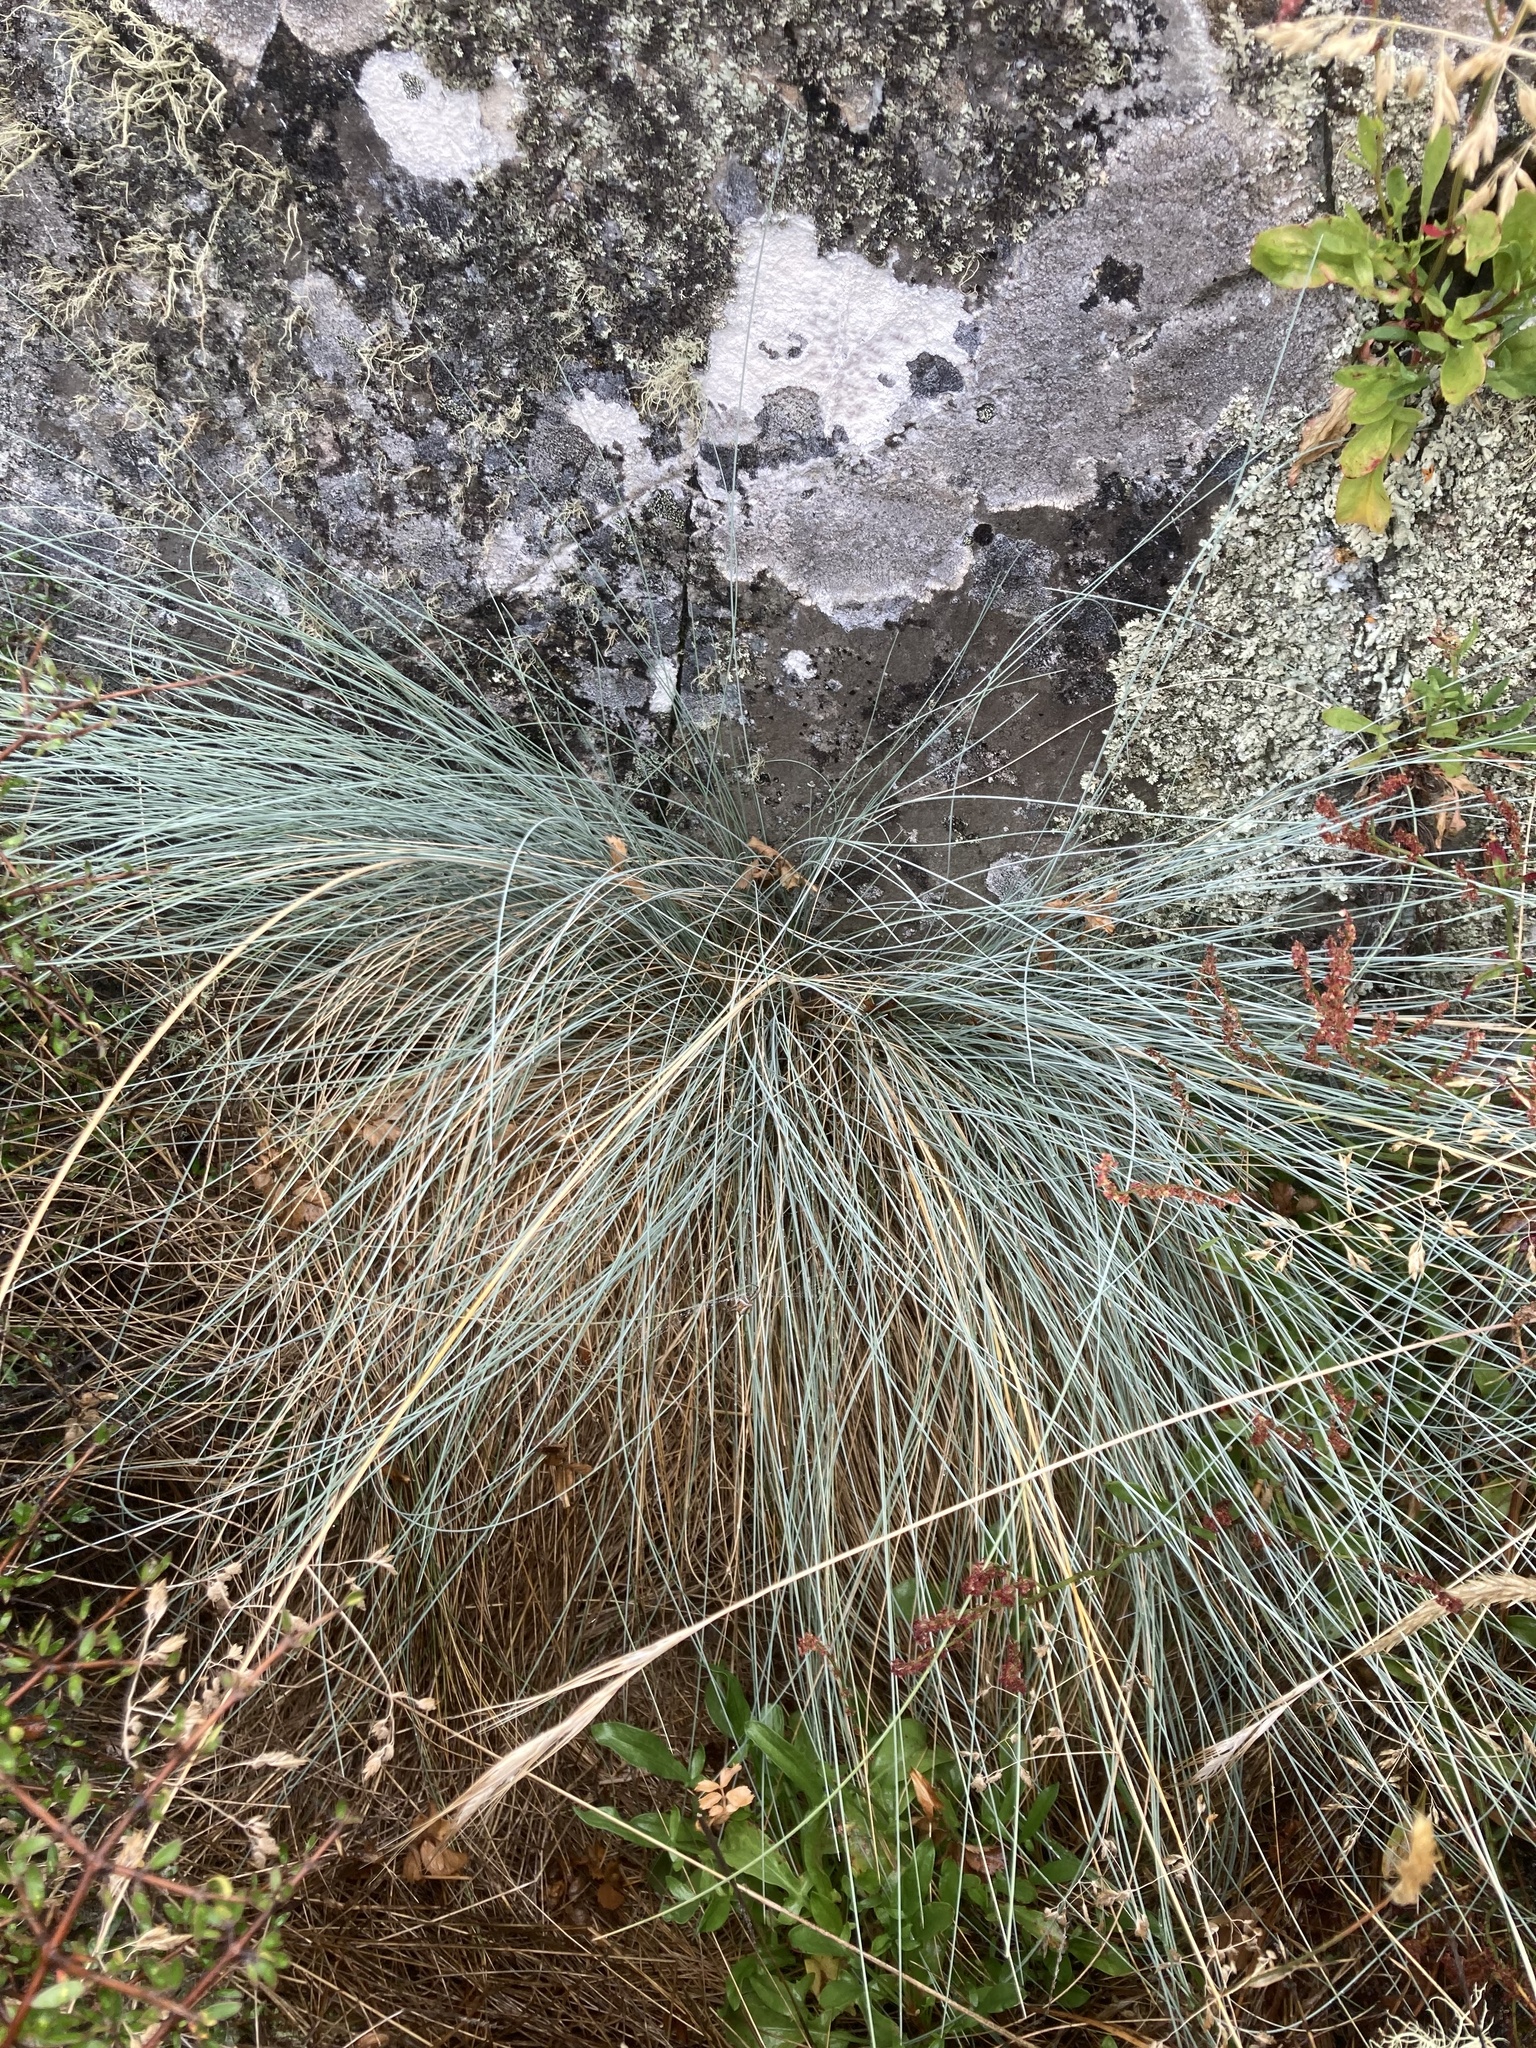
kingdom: Plantae
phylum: Tracheophyta
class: Liliopsida
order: Poales
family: Poaceae
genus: Poa
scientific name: Poa colensoi
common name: Blue tussock
